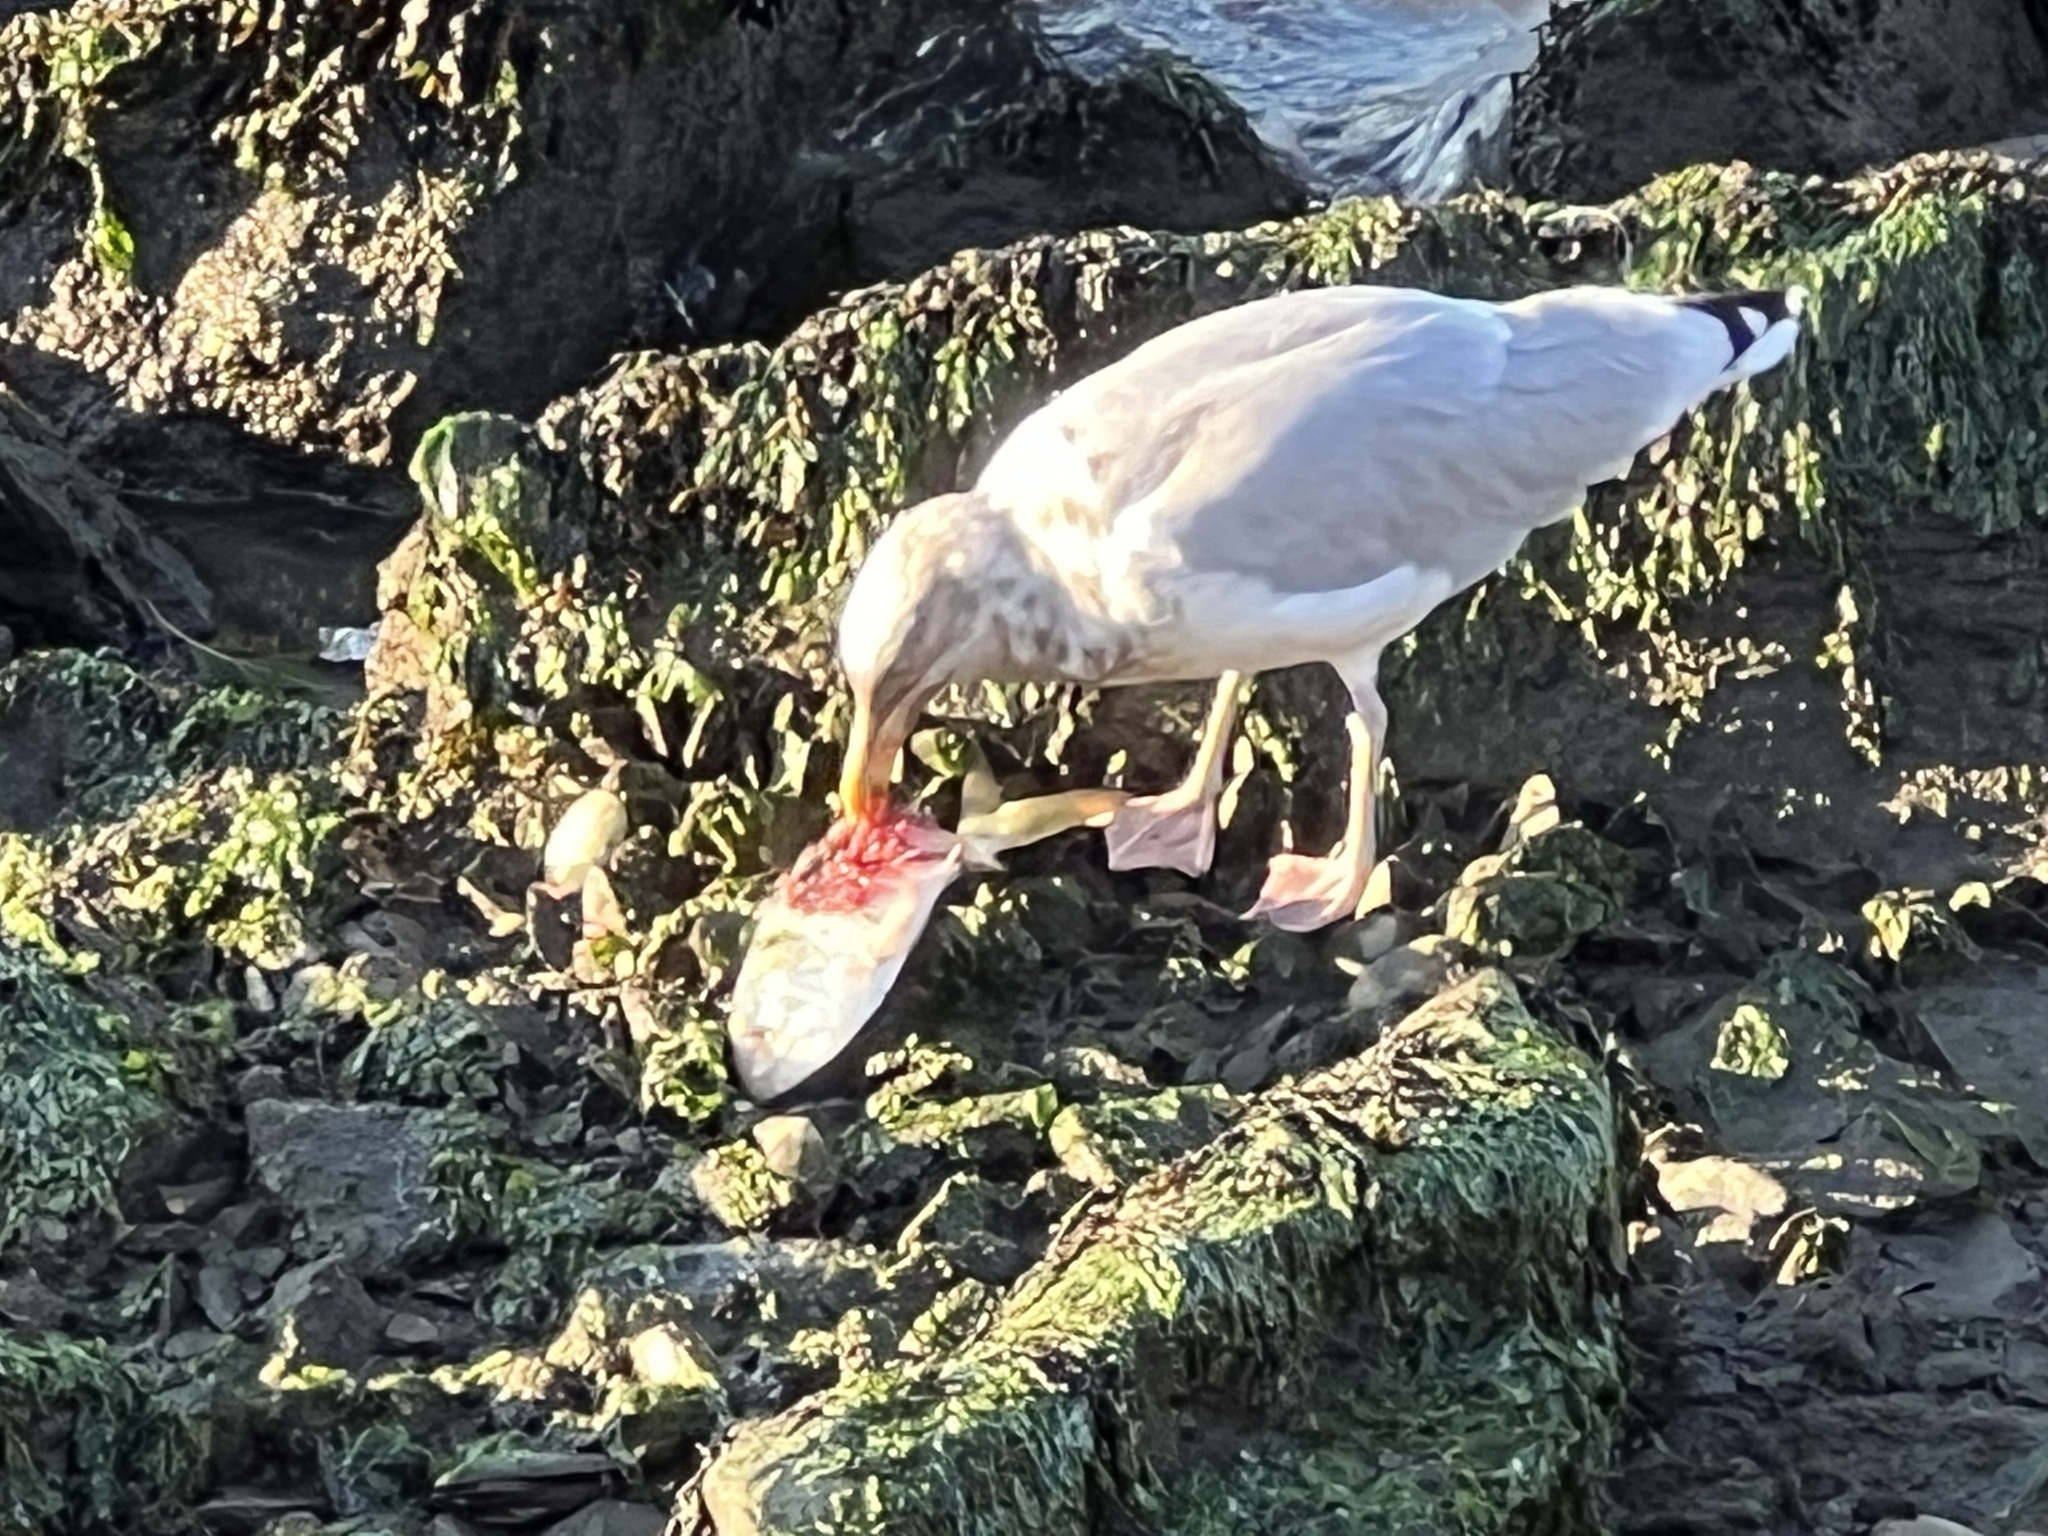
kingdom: Animalia
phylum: Chordata
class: Aves
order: Charadriiformes
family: Laridae
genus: Larus
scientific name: Larus argentatus
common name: Herring gull
